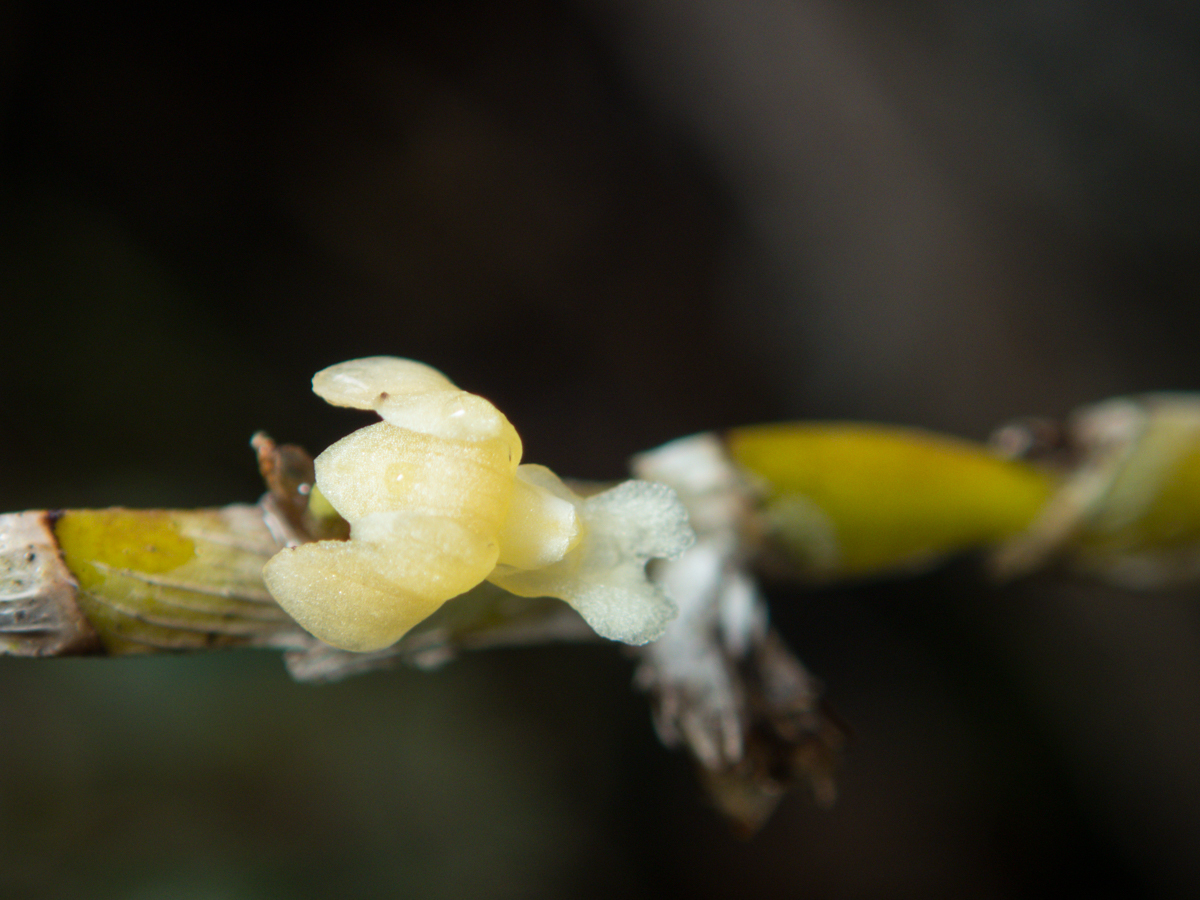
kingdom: Plantae
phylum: Tracheophyta
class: Liliopsida
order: Asparagales
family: Orchidaceae
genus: Dendrobium
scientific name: Dendrobium aloifolium
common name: Aloe-like dendrobium
